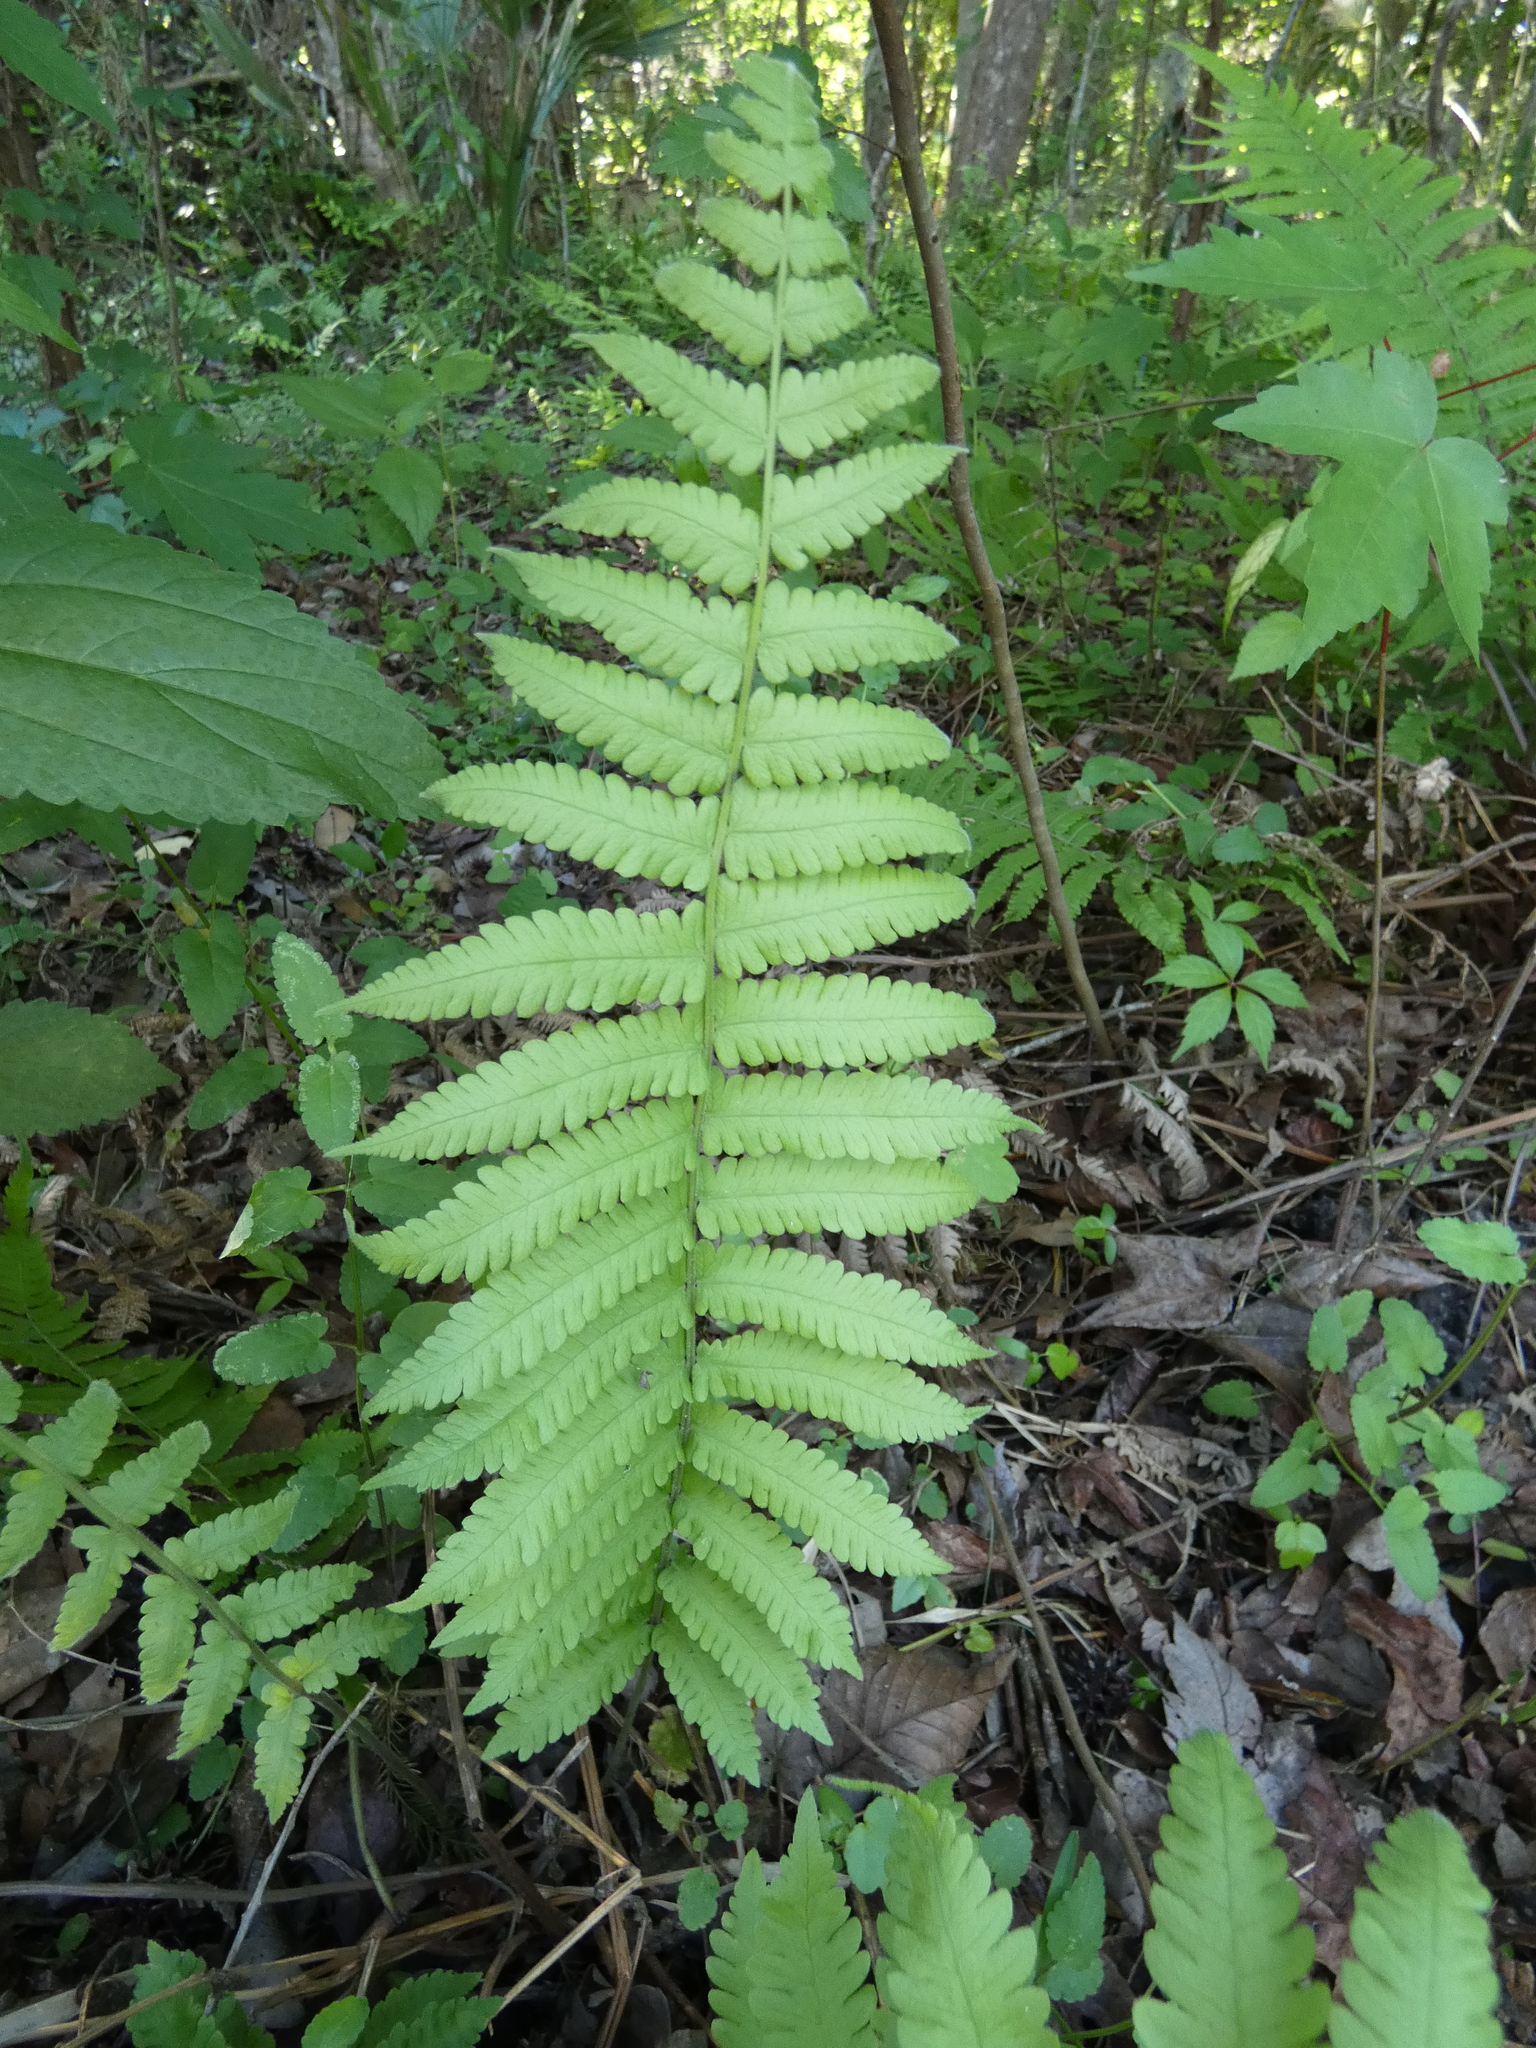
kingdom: Plantae
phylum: Tracheophyta
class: Polypodiopsida
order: Polypodiales
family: Thelypteridaceae
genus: Christella
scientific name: Christella dentata
